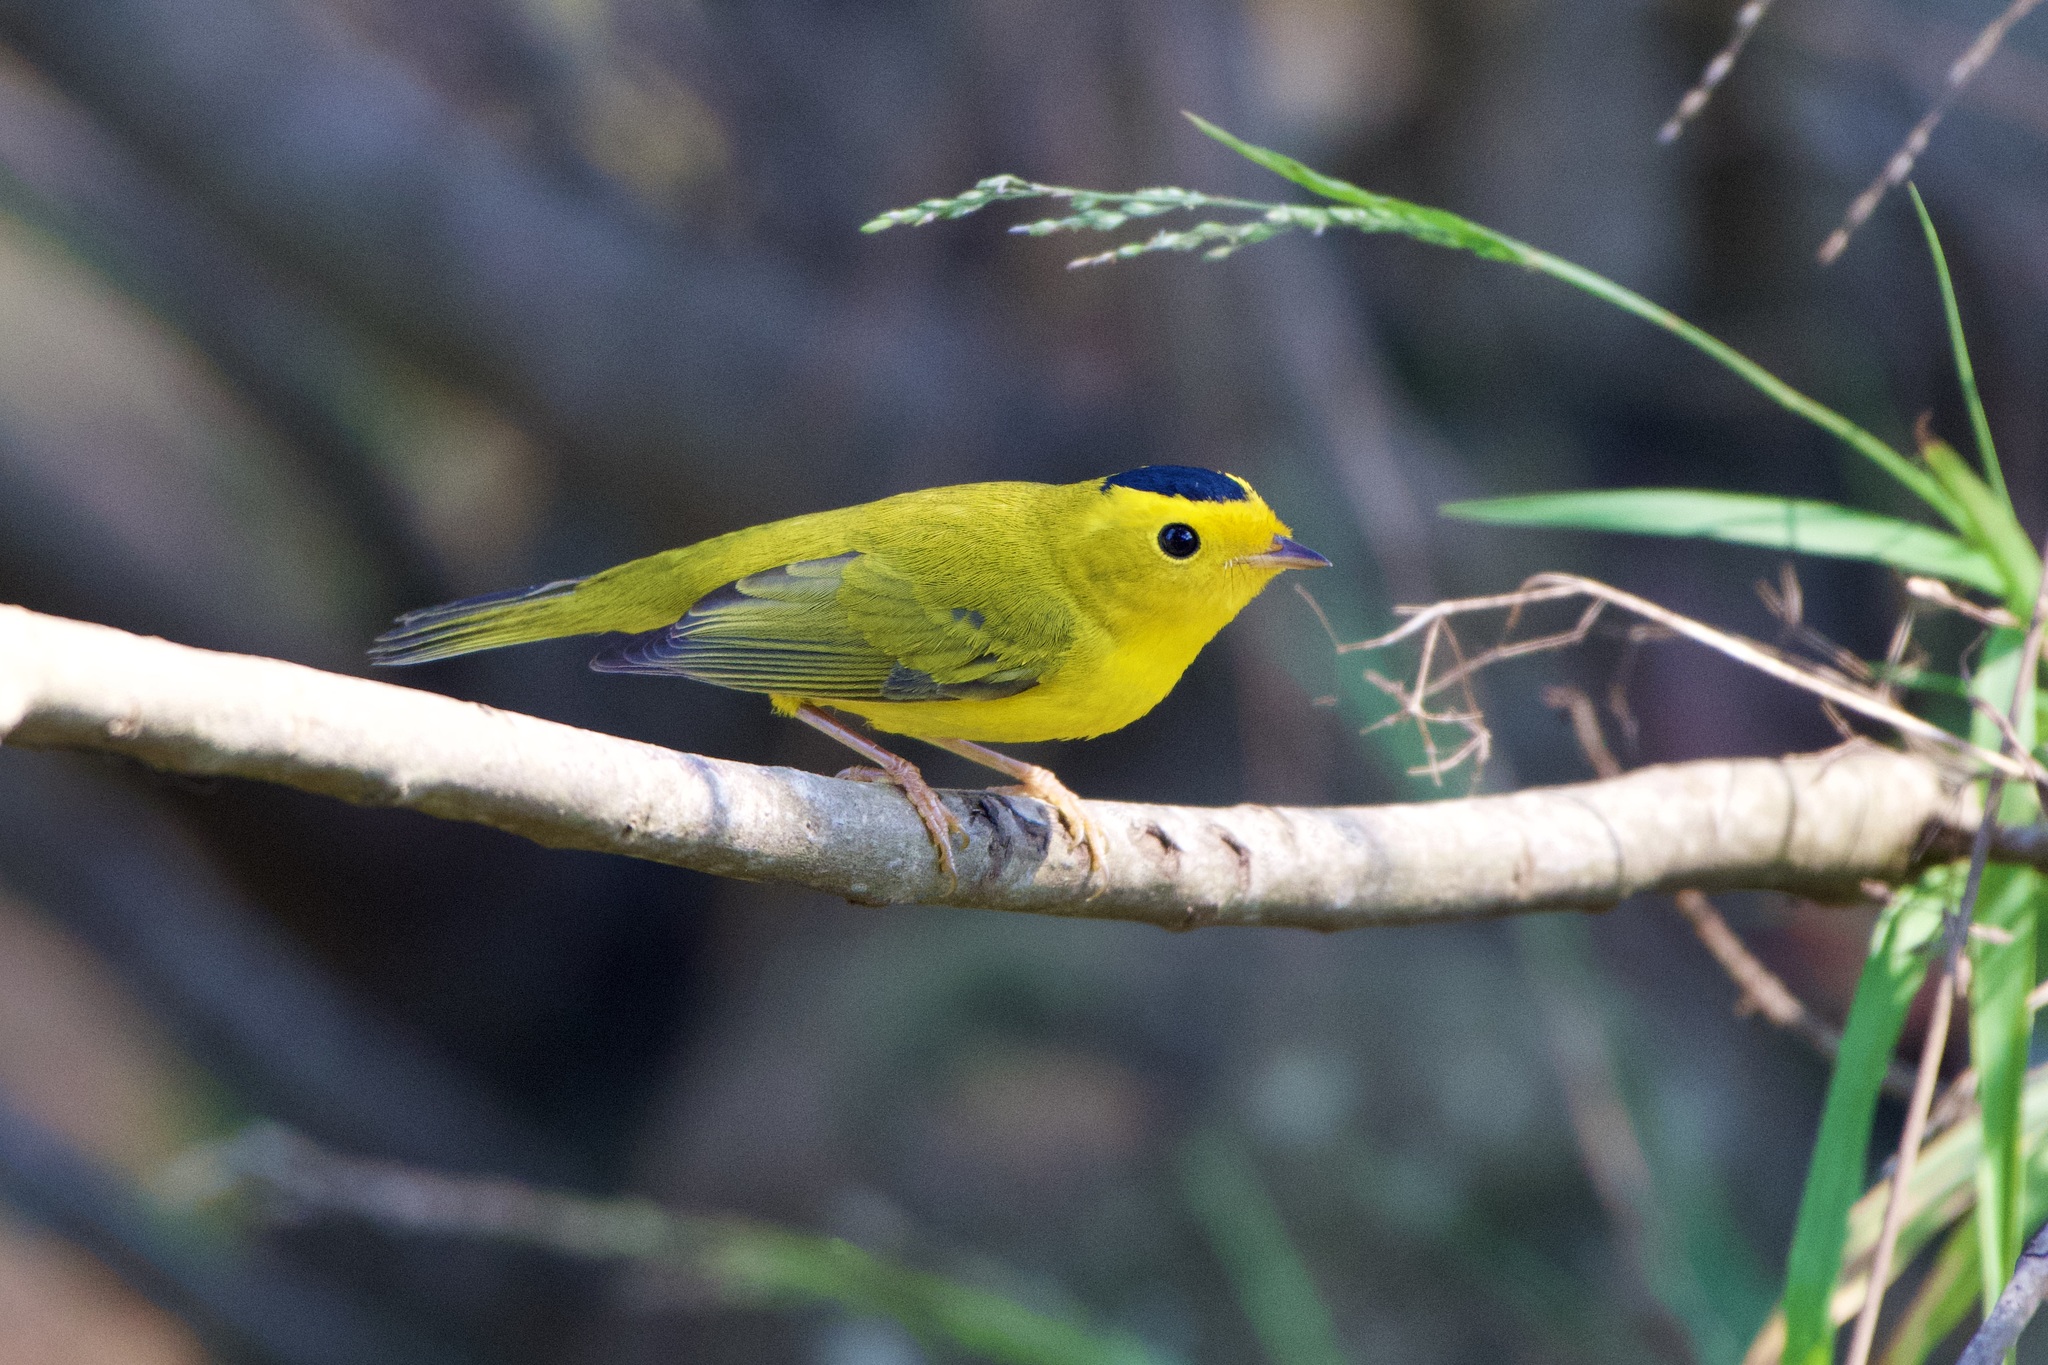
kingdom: Animalia
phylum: Chordata
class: Aves
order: Passeriformes
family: Parulidae
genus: Cardellina
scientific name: Cardellina pusilla
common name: Wilson's warbler
